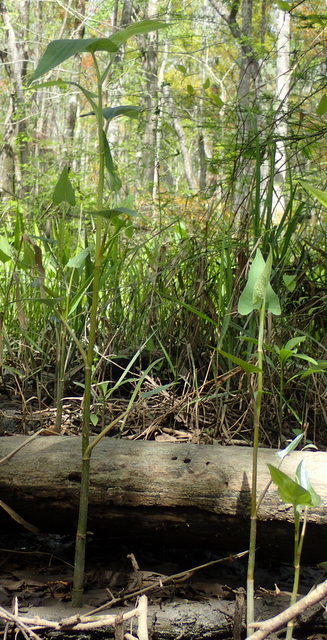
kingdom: Plantae
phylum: Tracheophyta
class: Magnoliopsida
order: Piperales
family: Saururaceae
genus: Saururus
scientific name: Saururus cernuus
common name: Lizard's-tail
